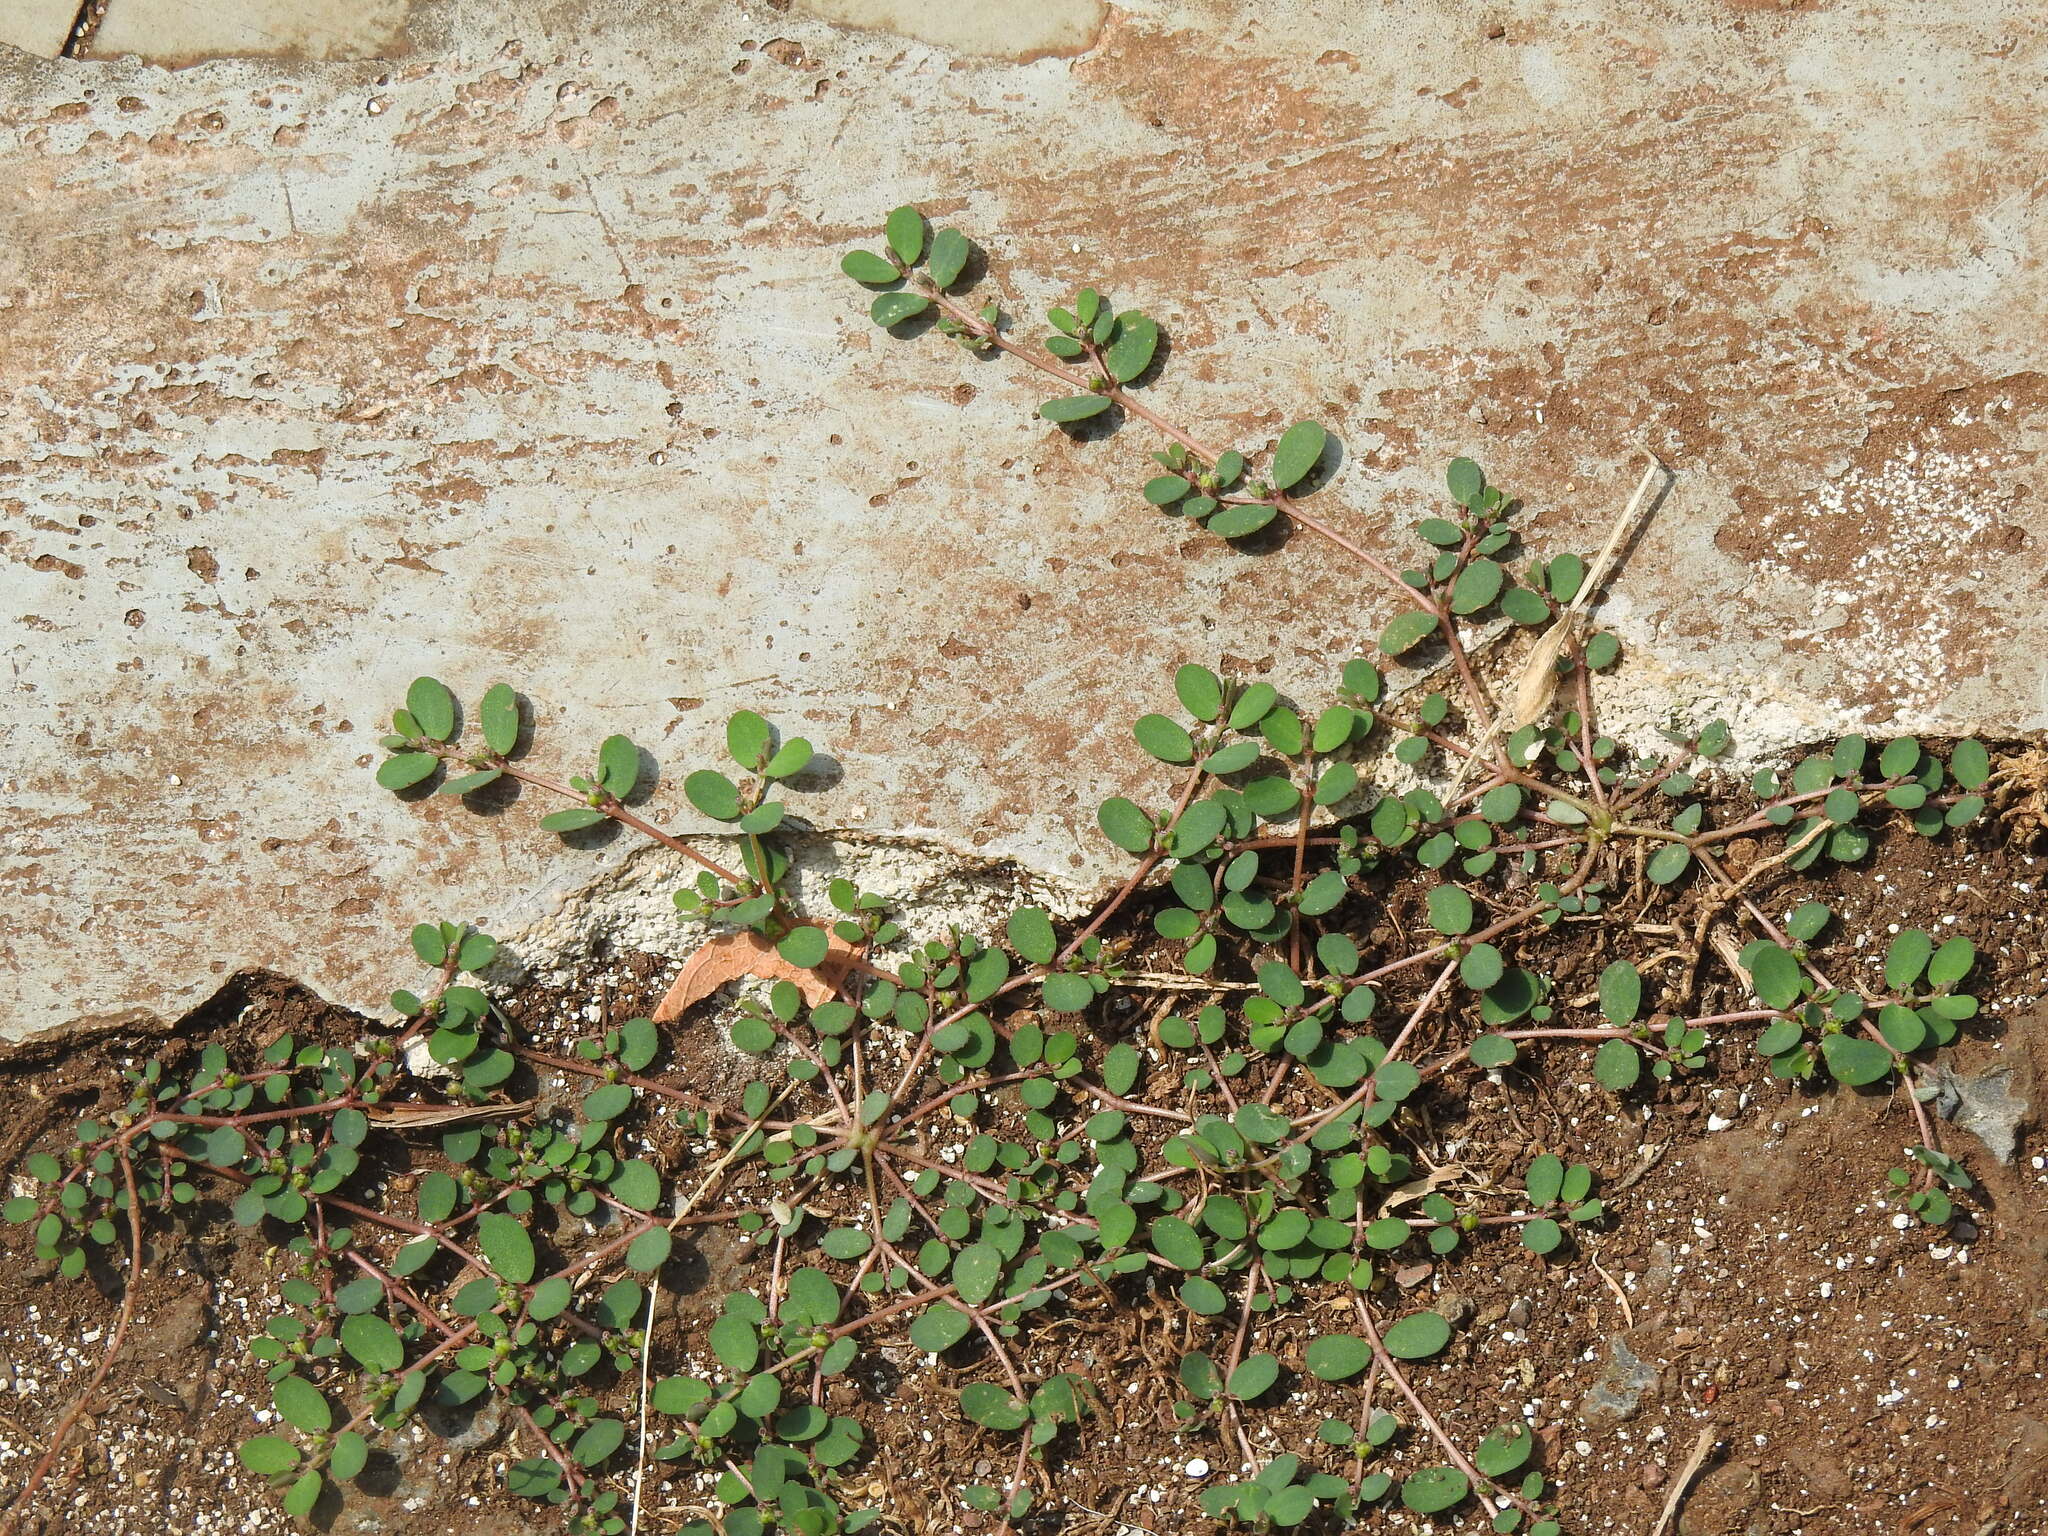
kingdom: Plantae
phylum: Tracheophyta
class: Magnoliopsida
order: Malpighiales
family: Euphorbiaceae
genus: Euphorbia
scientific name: Euphorbia prostrata
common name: Prostrate sandmat
